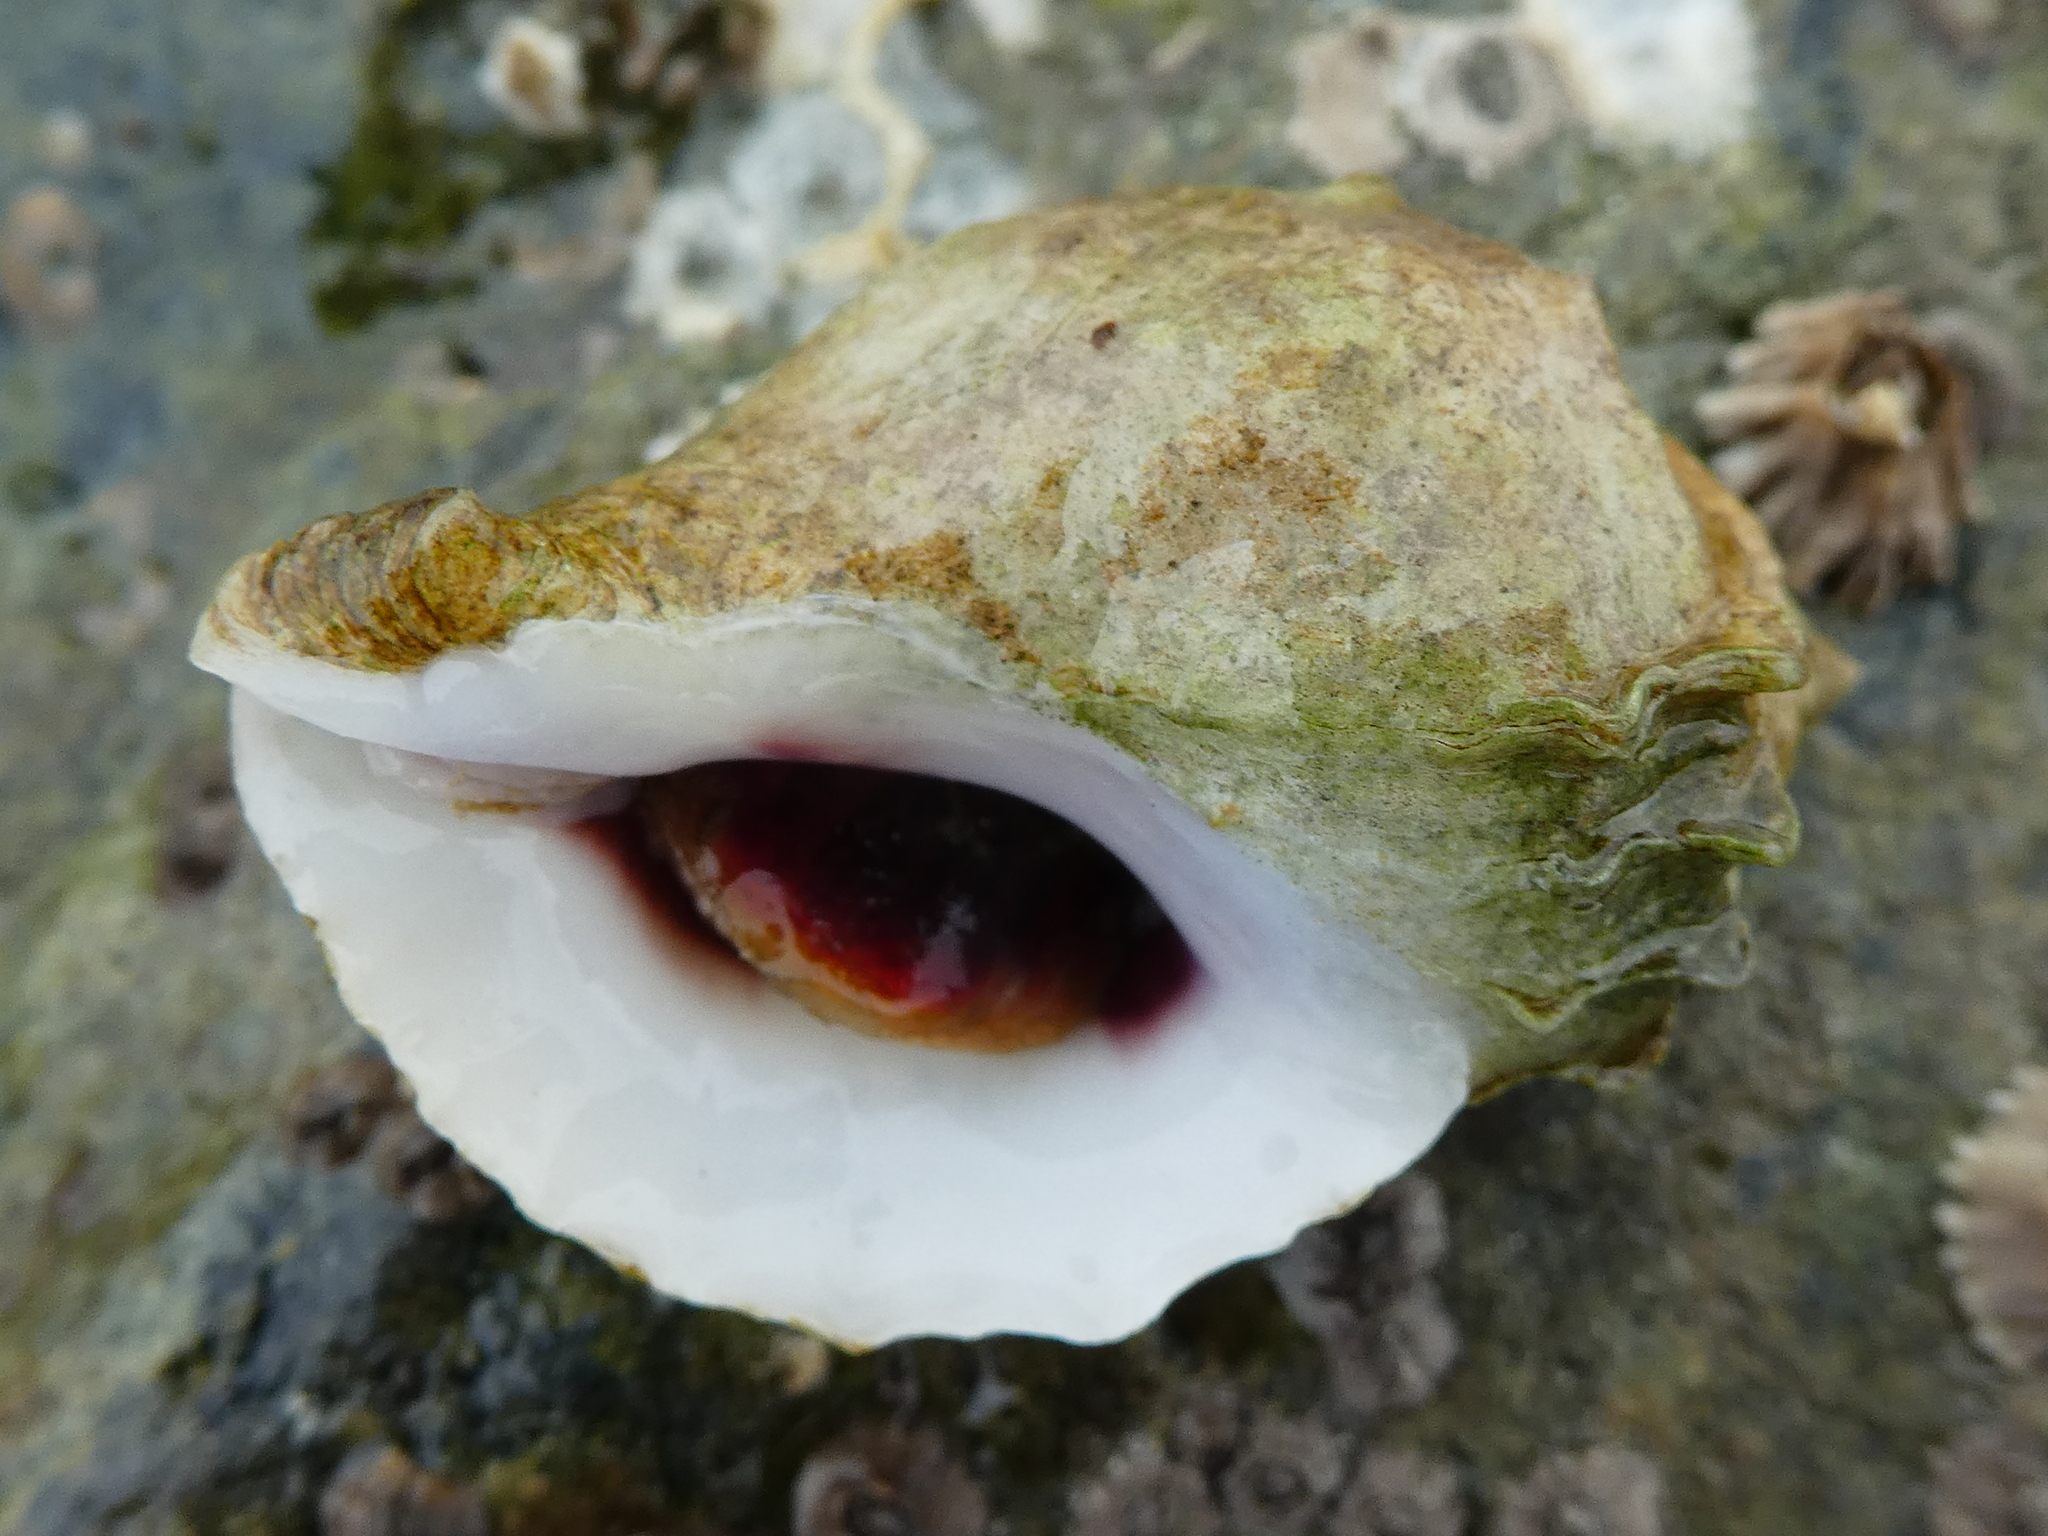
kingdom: Animalia
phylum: Mollusca
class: Gastropoda
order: Neogastropoda
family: Muricidae
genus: Nucella
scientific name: Nucella lamellosa
